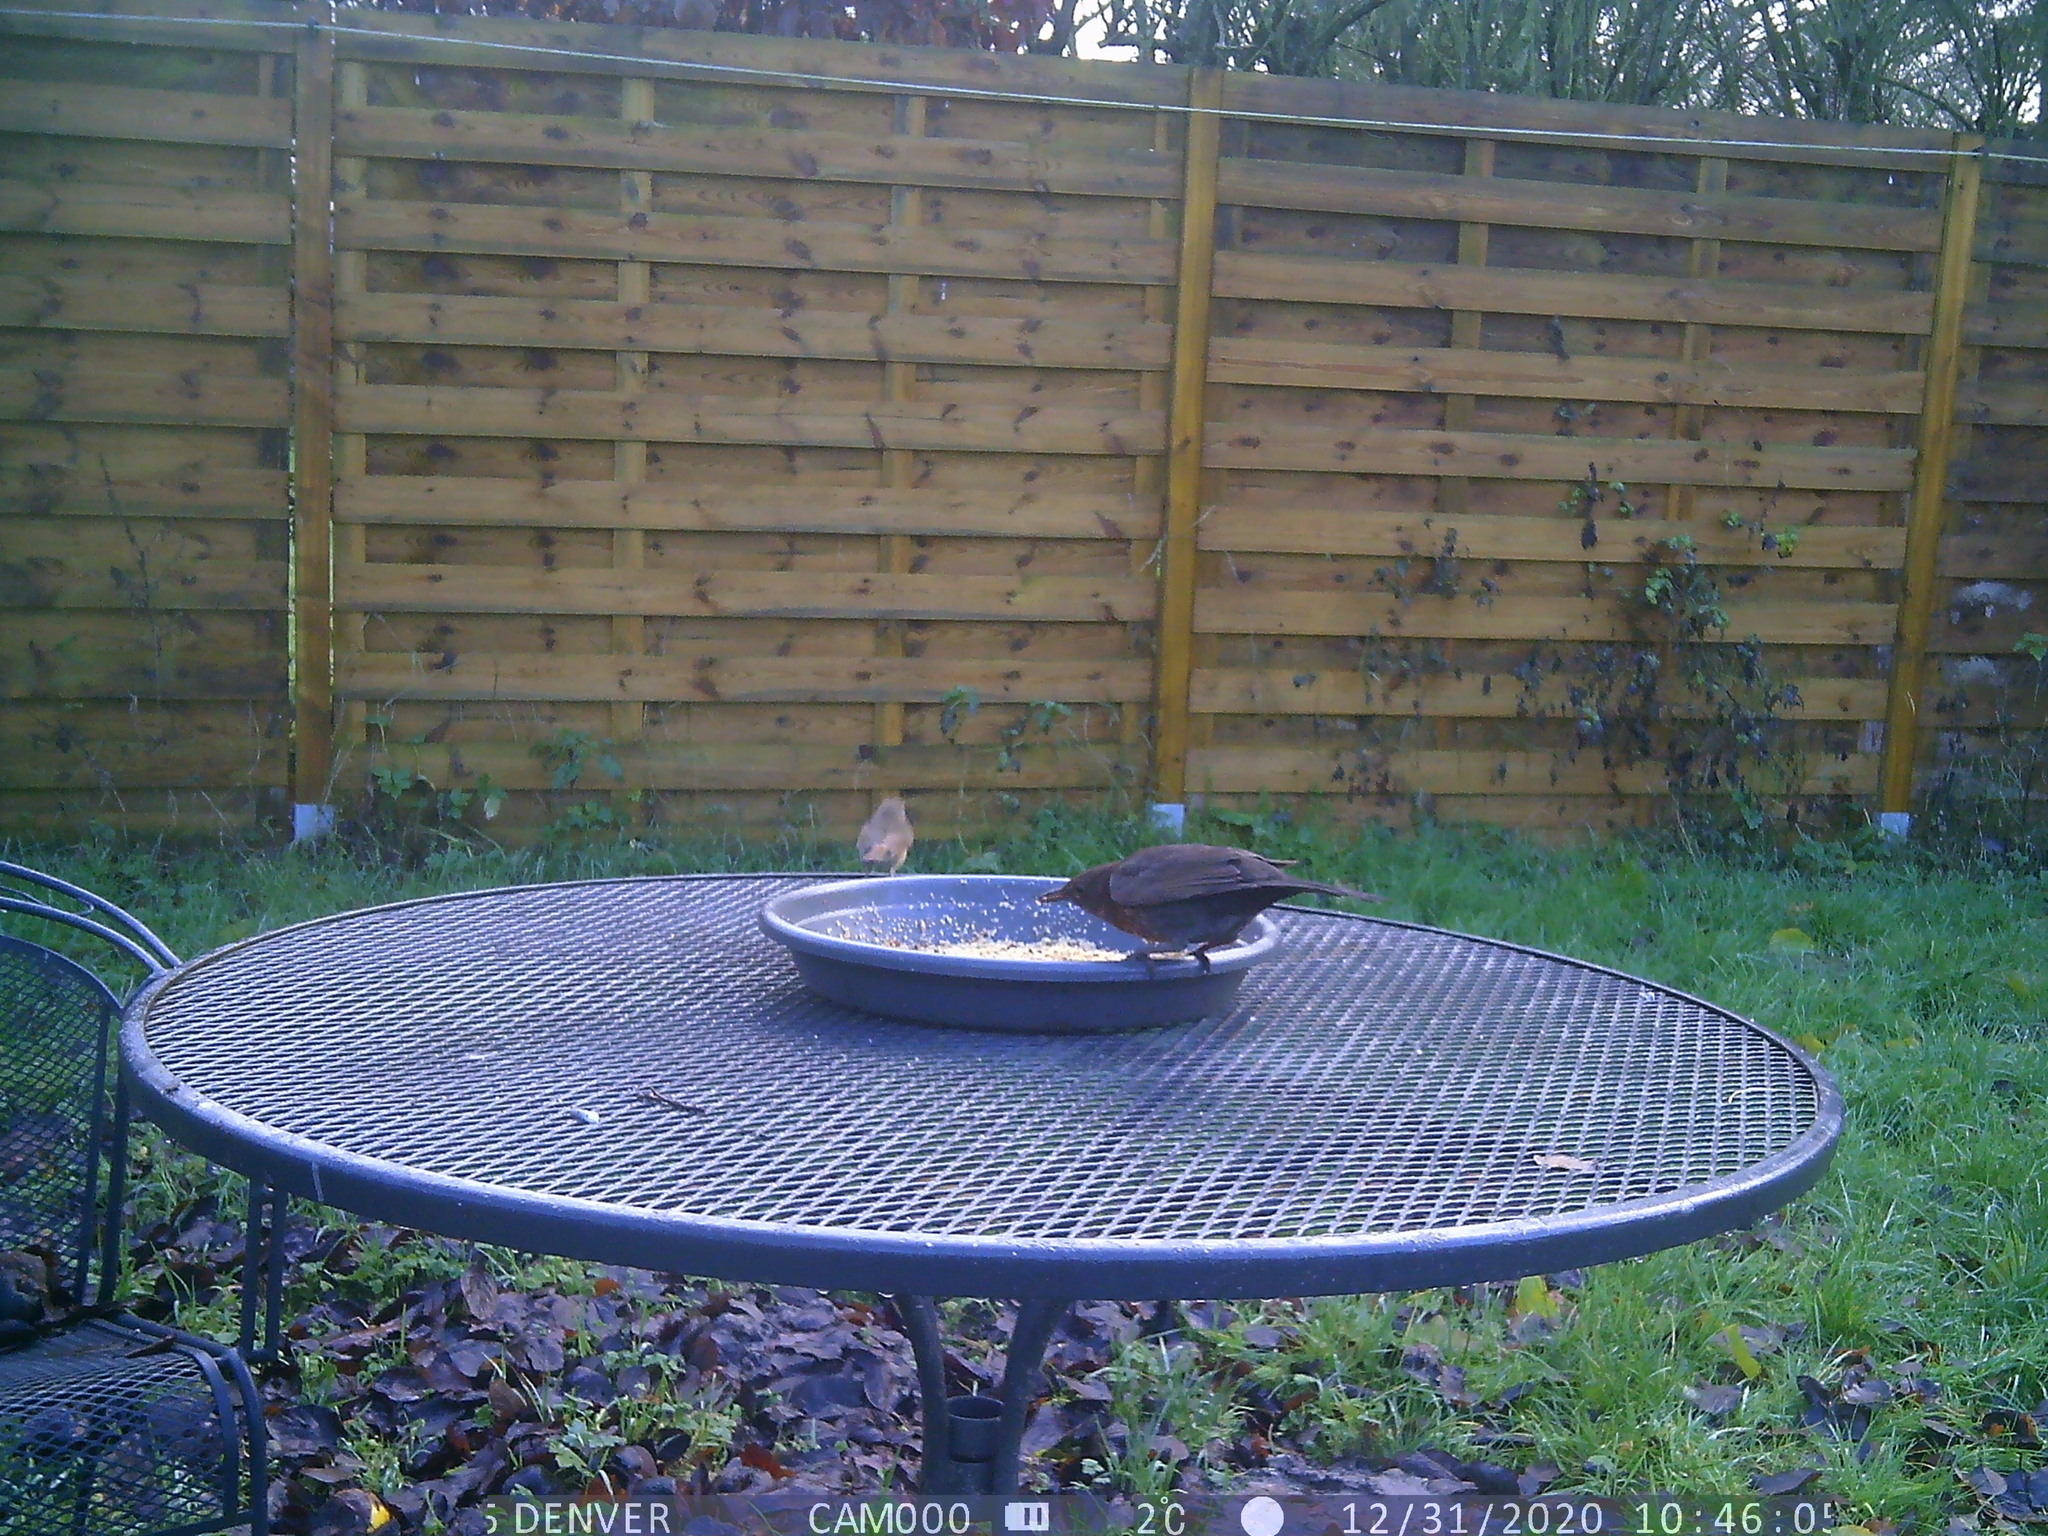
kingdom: Animalia
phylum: Chordata
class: Aves
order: Passeriformes
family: Muscicapidae
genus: Erithacus
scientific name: Erithacus rubecula
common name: European robin
